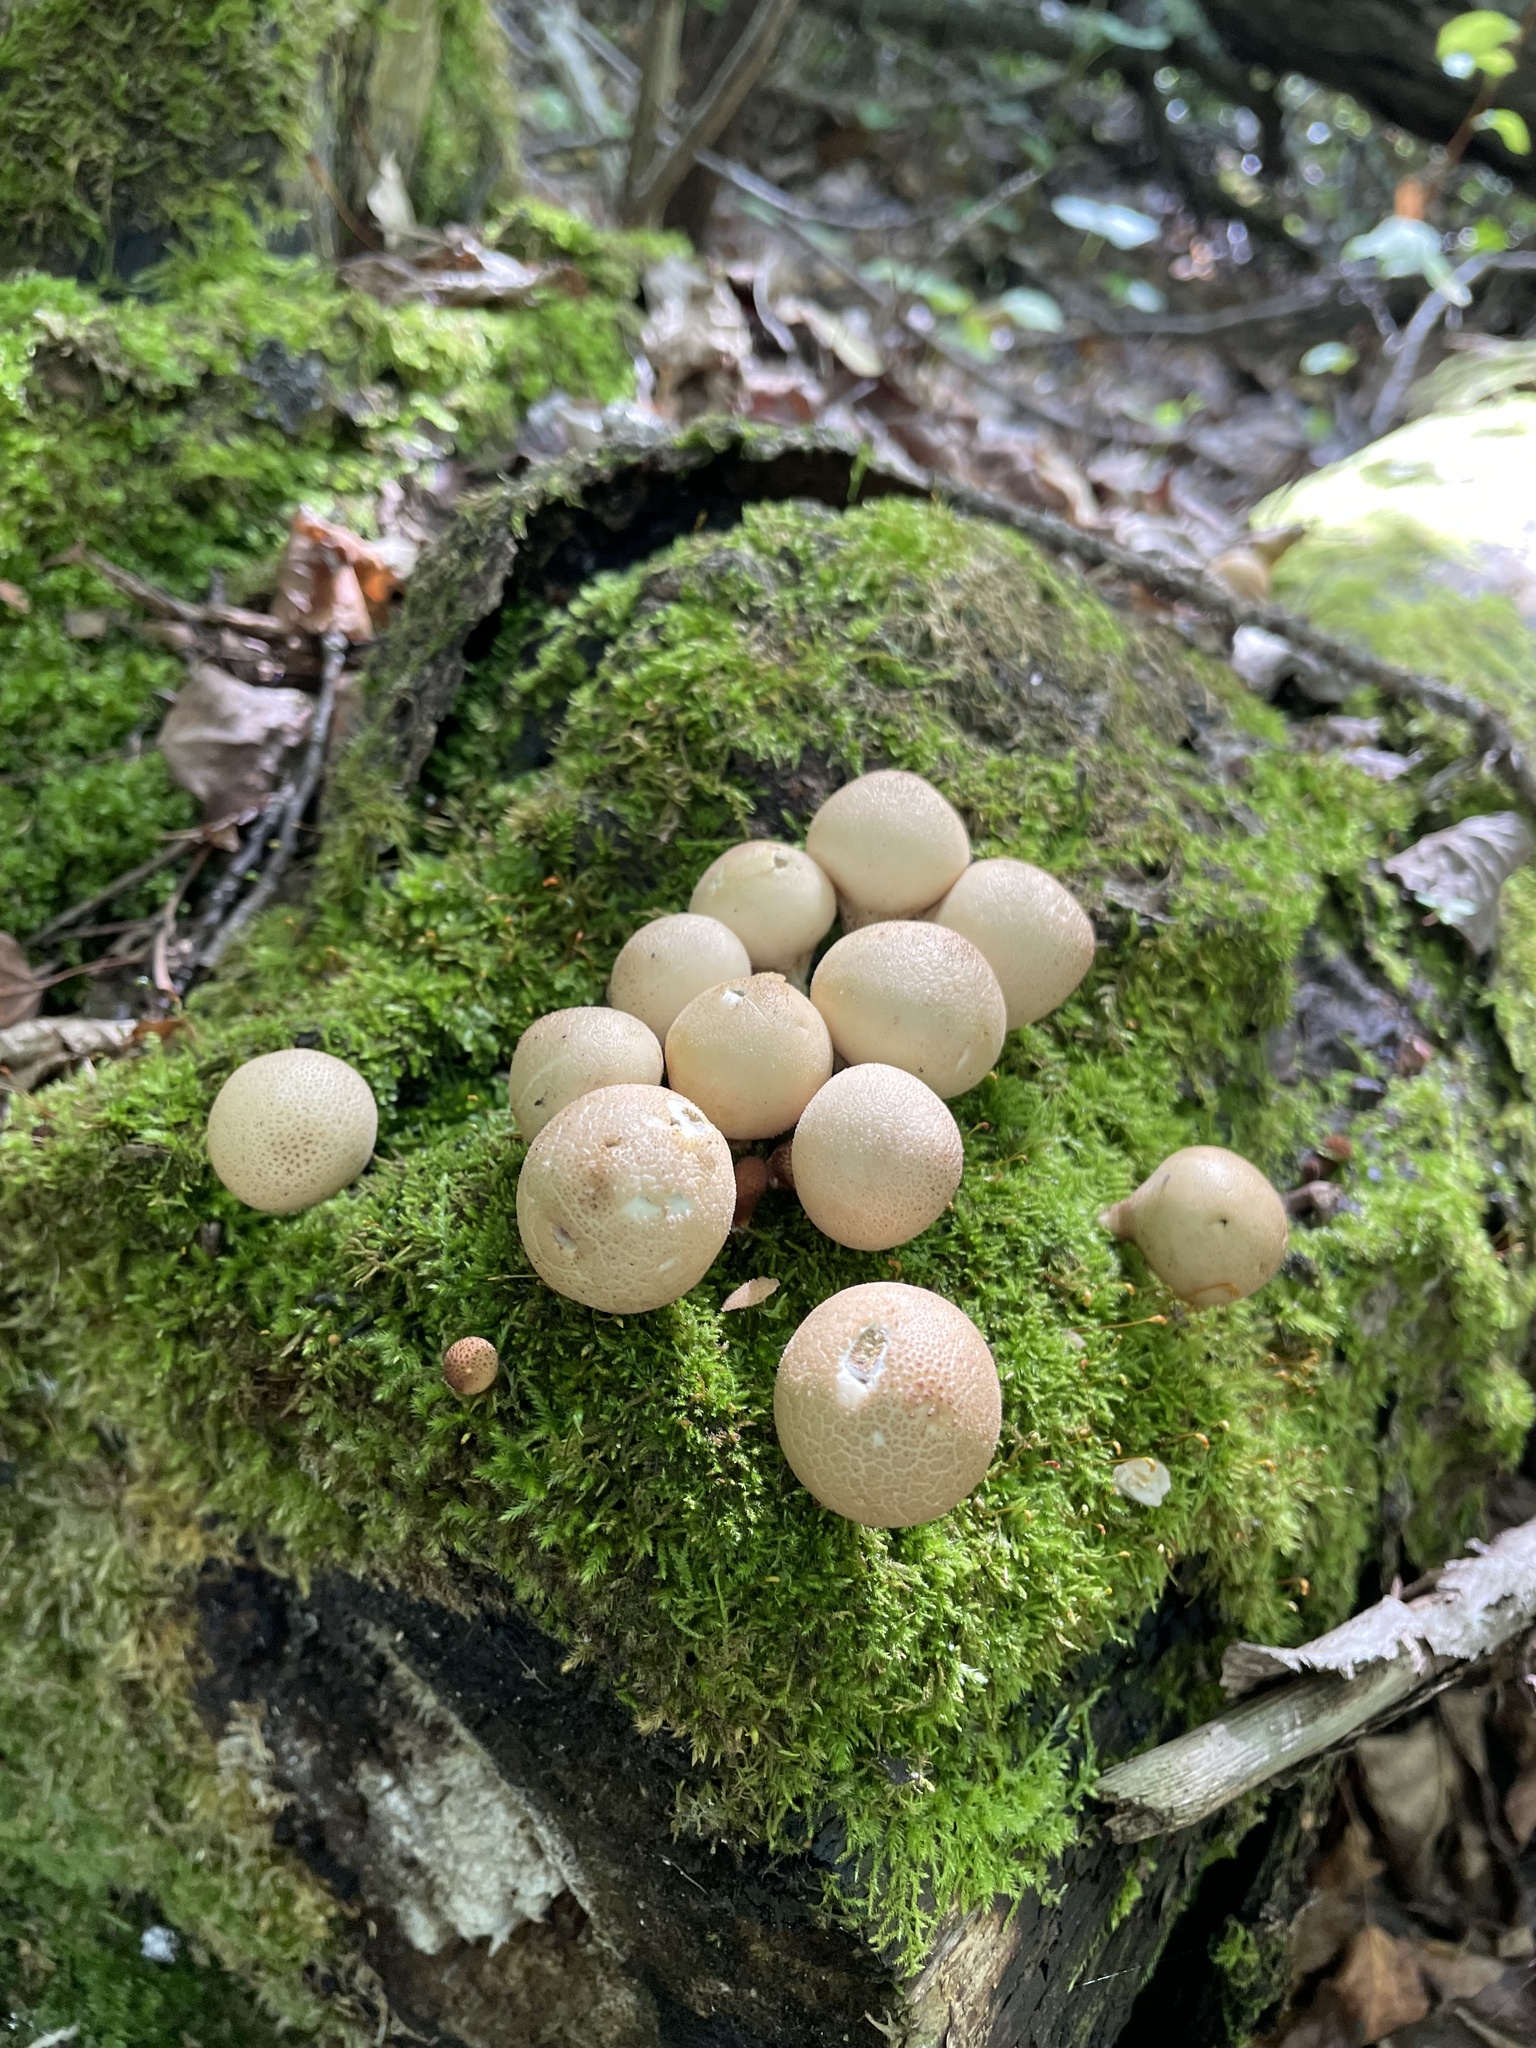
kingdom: Fungi
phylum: Basidiomycota
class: Agaricomycetes
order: Agaricales
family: Lycoperdaceae
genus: Apioperdon
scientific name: Apioperdon pyriforme
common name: Pear-shaped puffball
